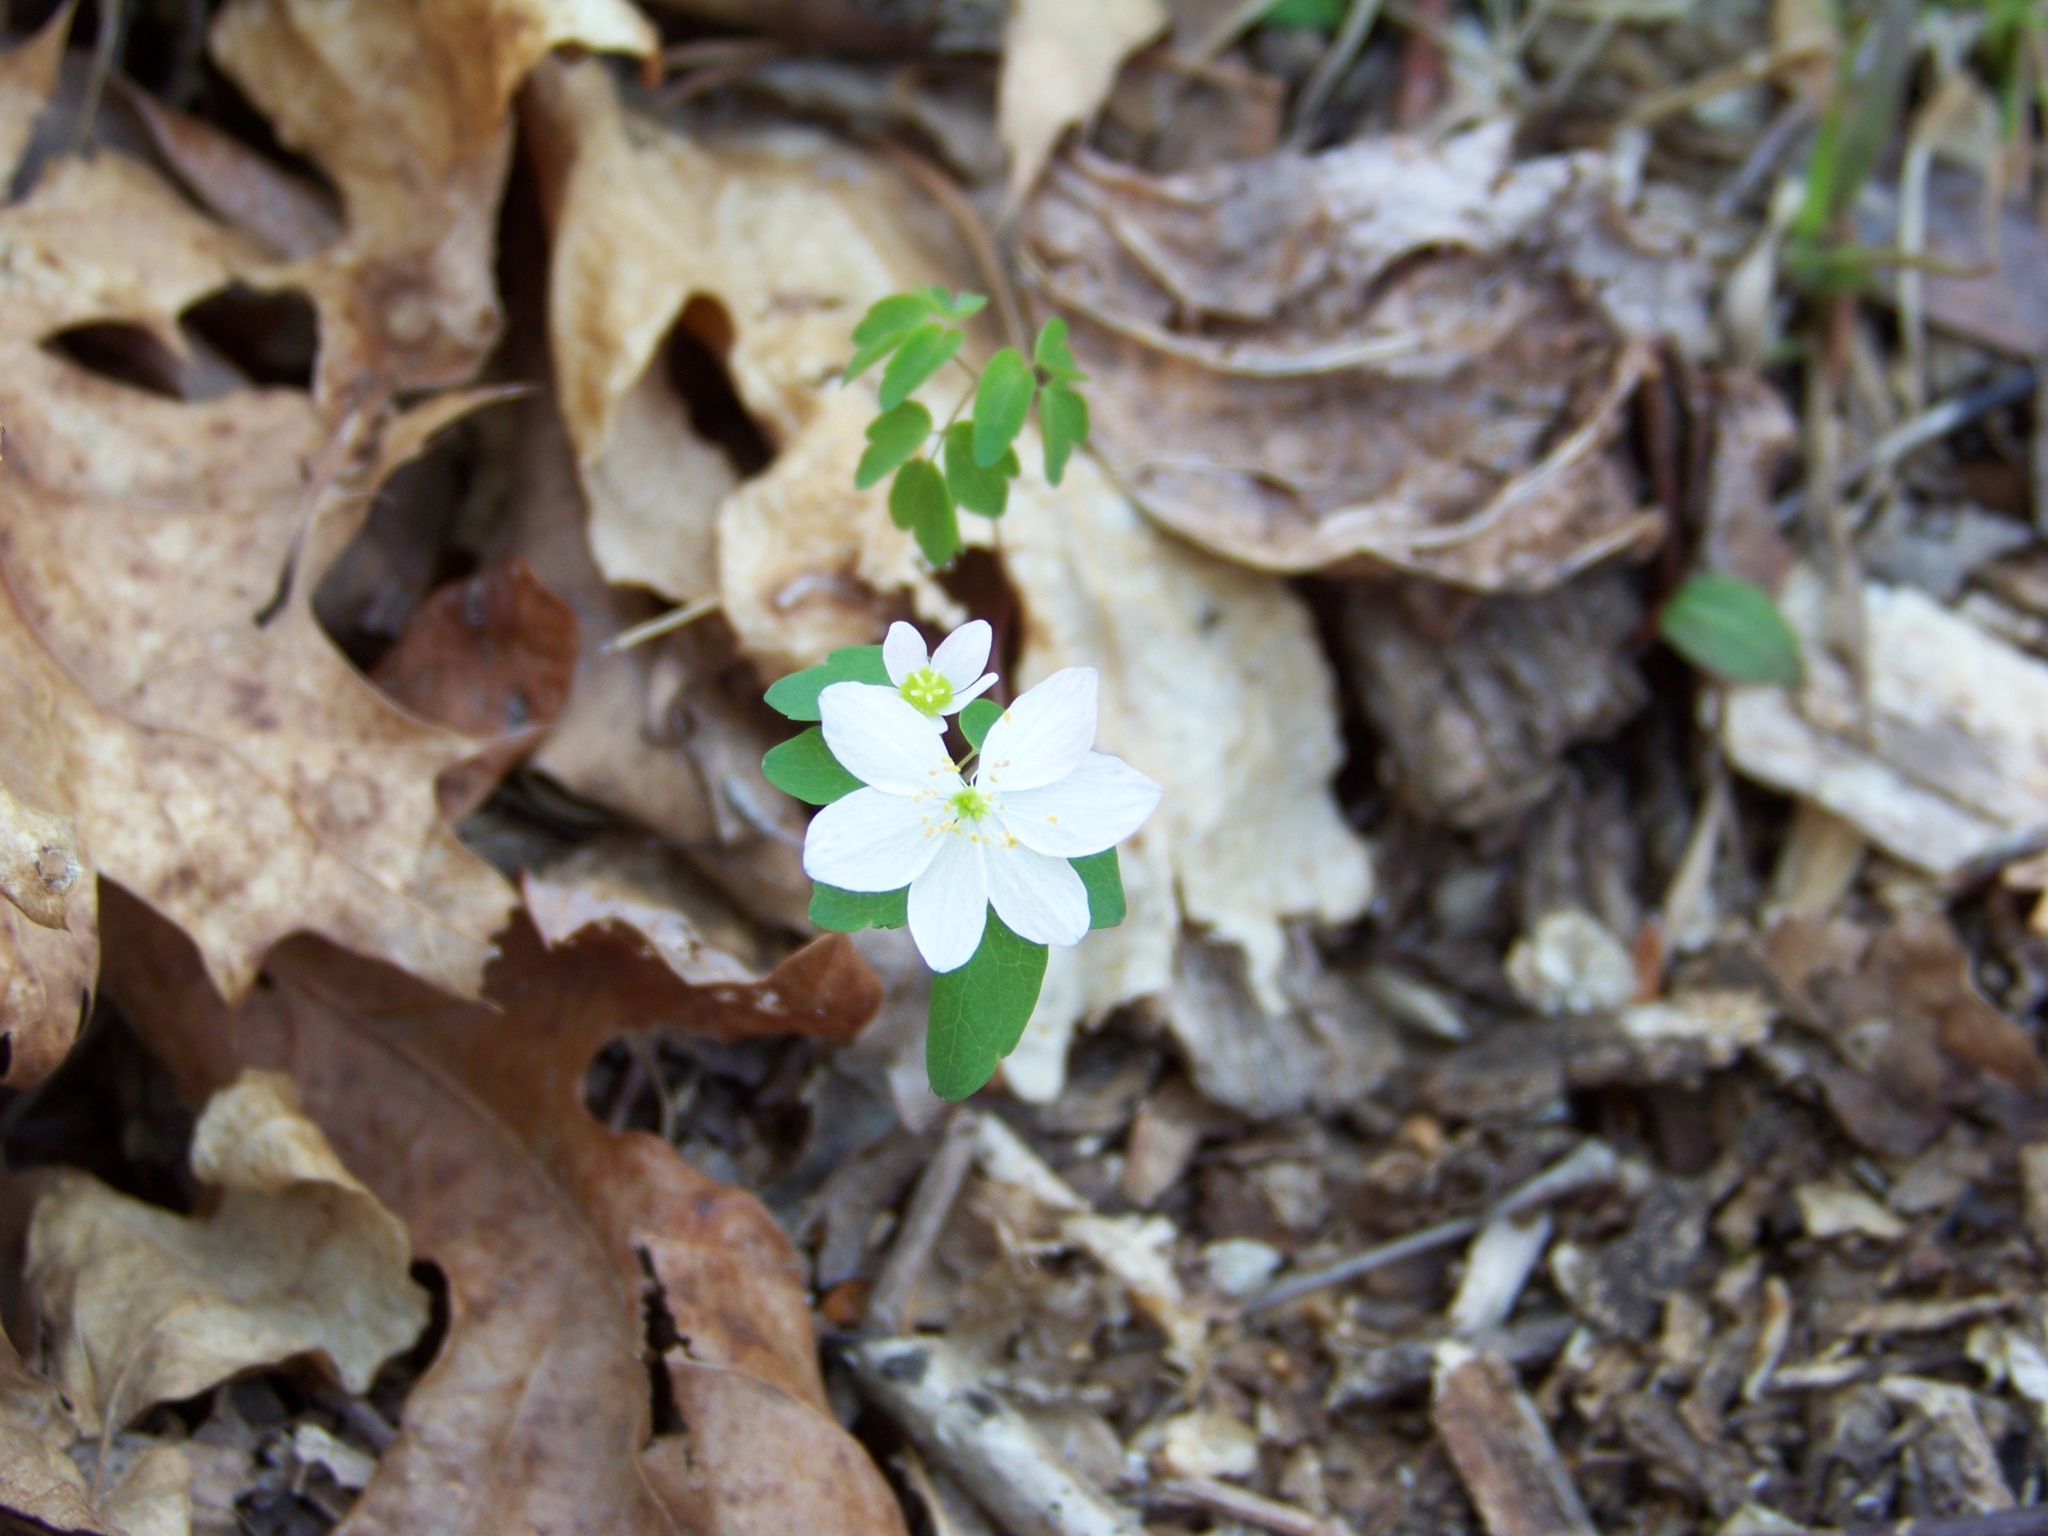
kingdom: Plantae
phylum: Tracheophyta
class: Magnoliopsida
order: Ranunculales
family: Ranunculaceae
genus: Thalictrum
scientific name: Thalictrum thalictroides
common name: Rue-anemone
